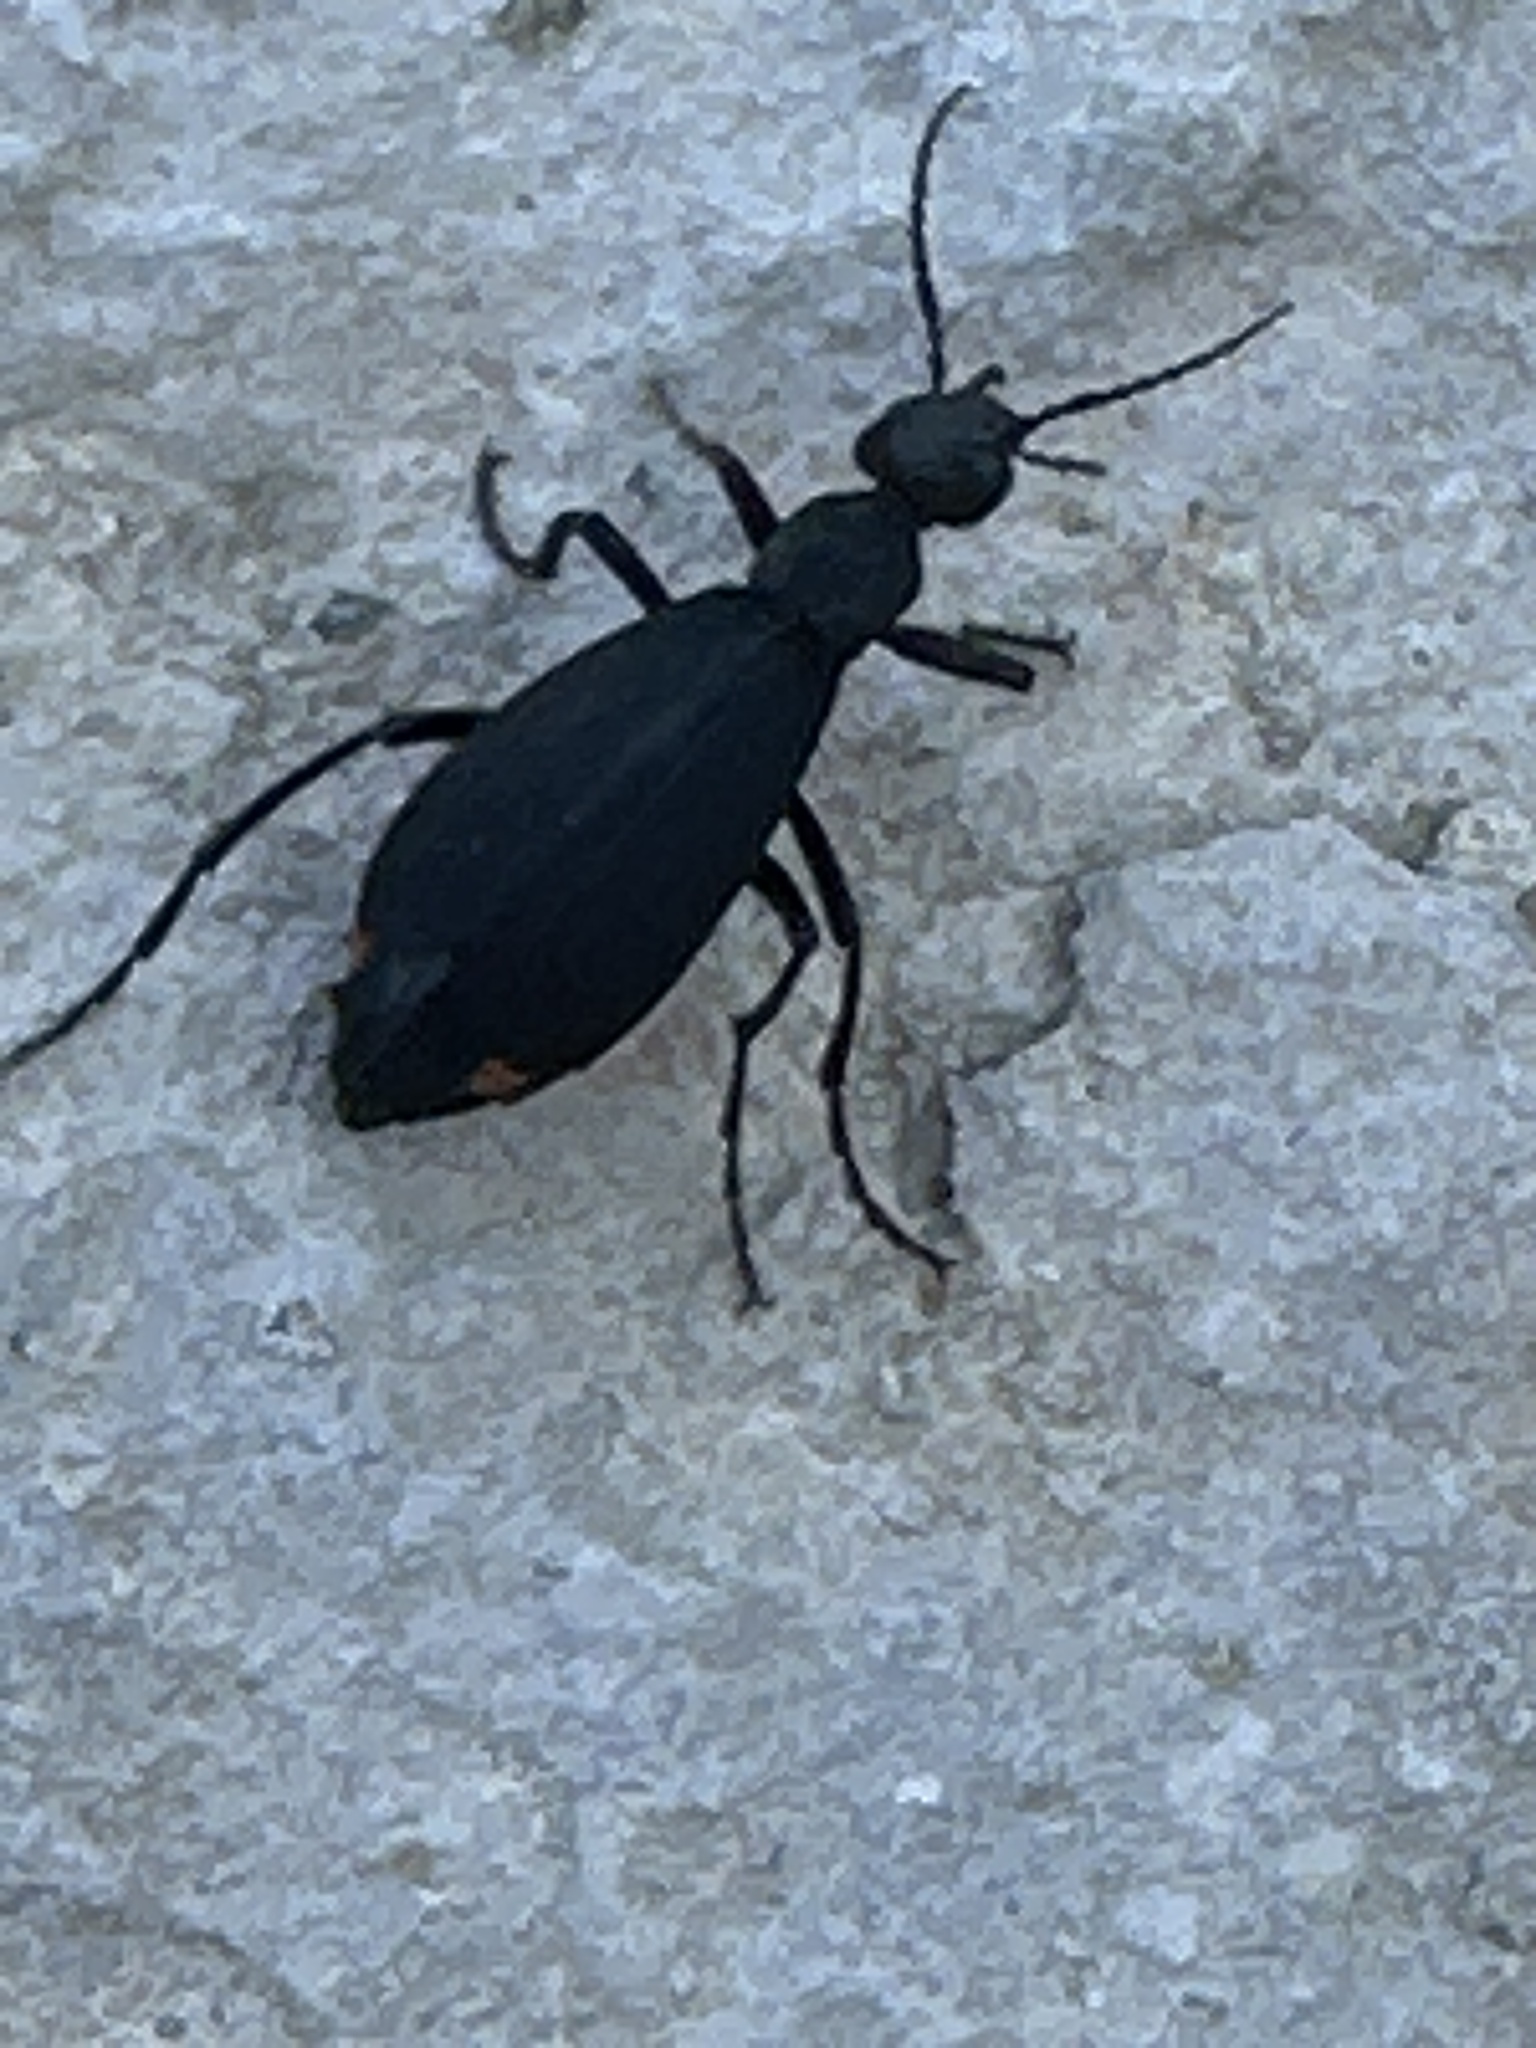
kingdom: Animalia
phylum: Arthropoda
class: Insecta
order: Coleoptera
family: Meloidae
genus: Epicauta
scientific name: Epicauta conferta
